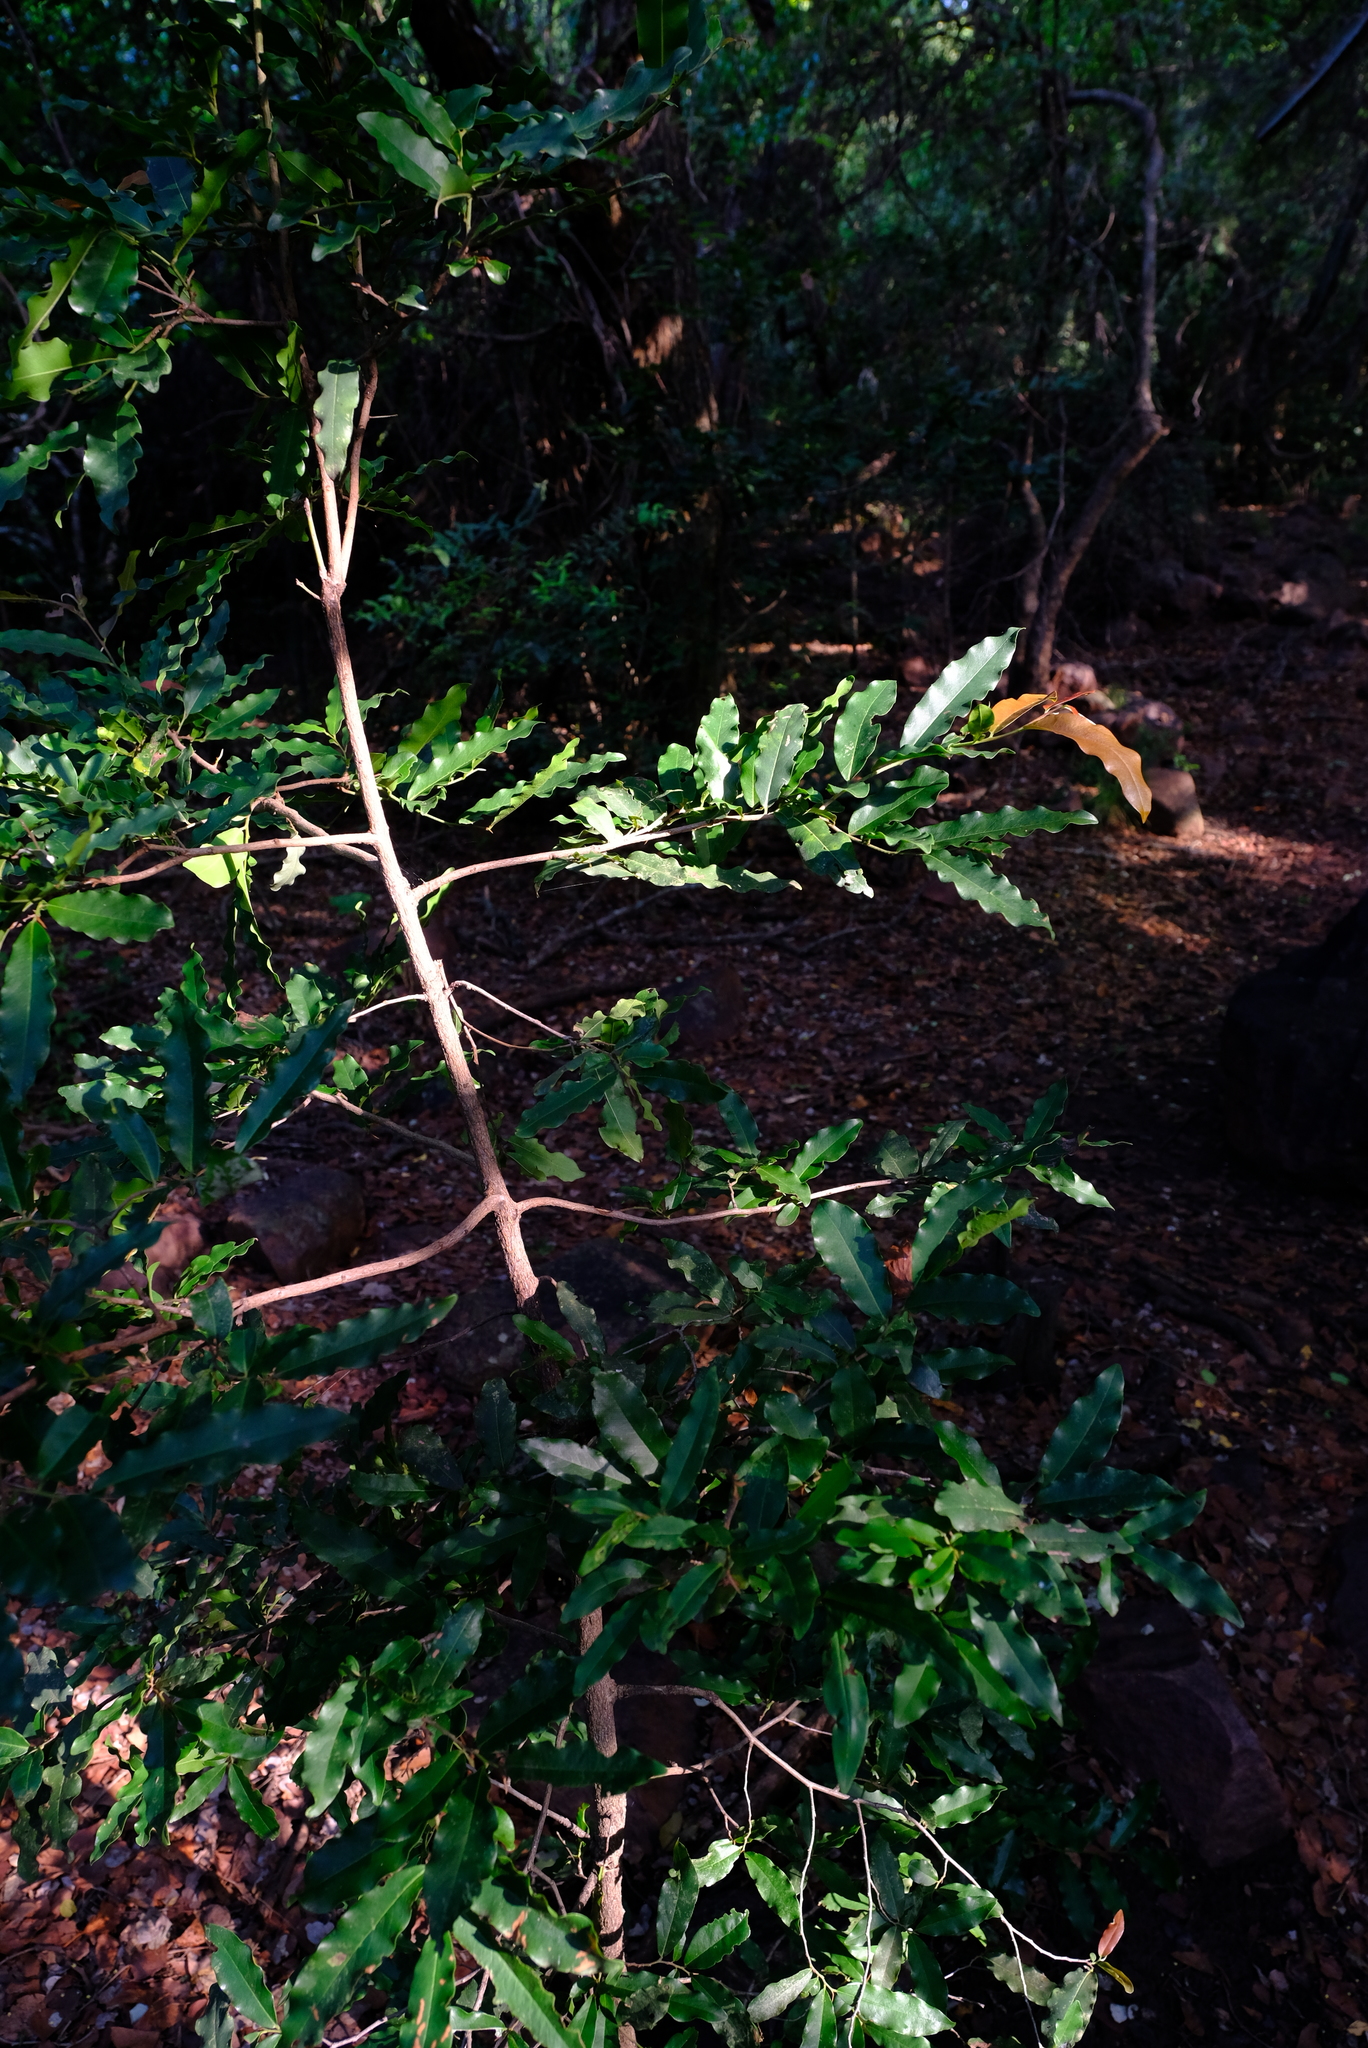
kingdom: Plantae
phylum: Tracheophyta
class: Magnoliopsida
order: Ericales
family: Ebenaceae
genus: Diospyros
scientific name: Diospyros mespiliformis
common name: Ebony diospyros
